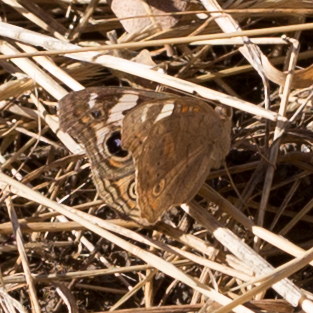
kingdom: Animalia
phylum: Arthropoda
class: Insecta
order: Lepidoptera
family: Nymphalidae
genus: Junonia
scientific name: Junonia grisea
